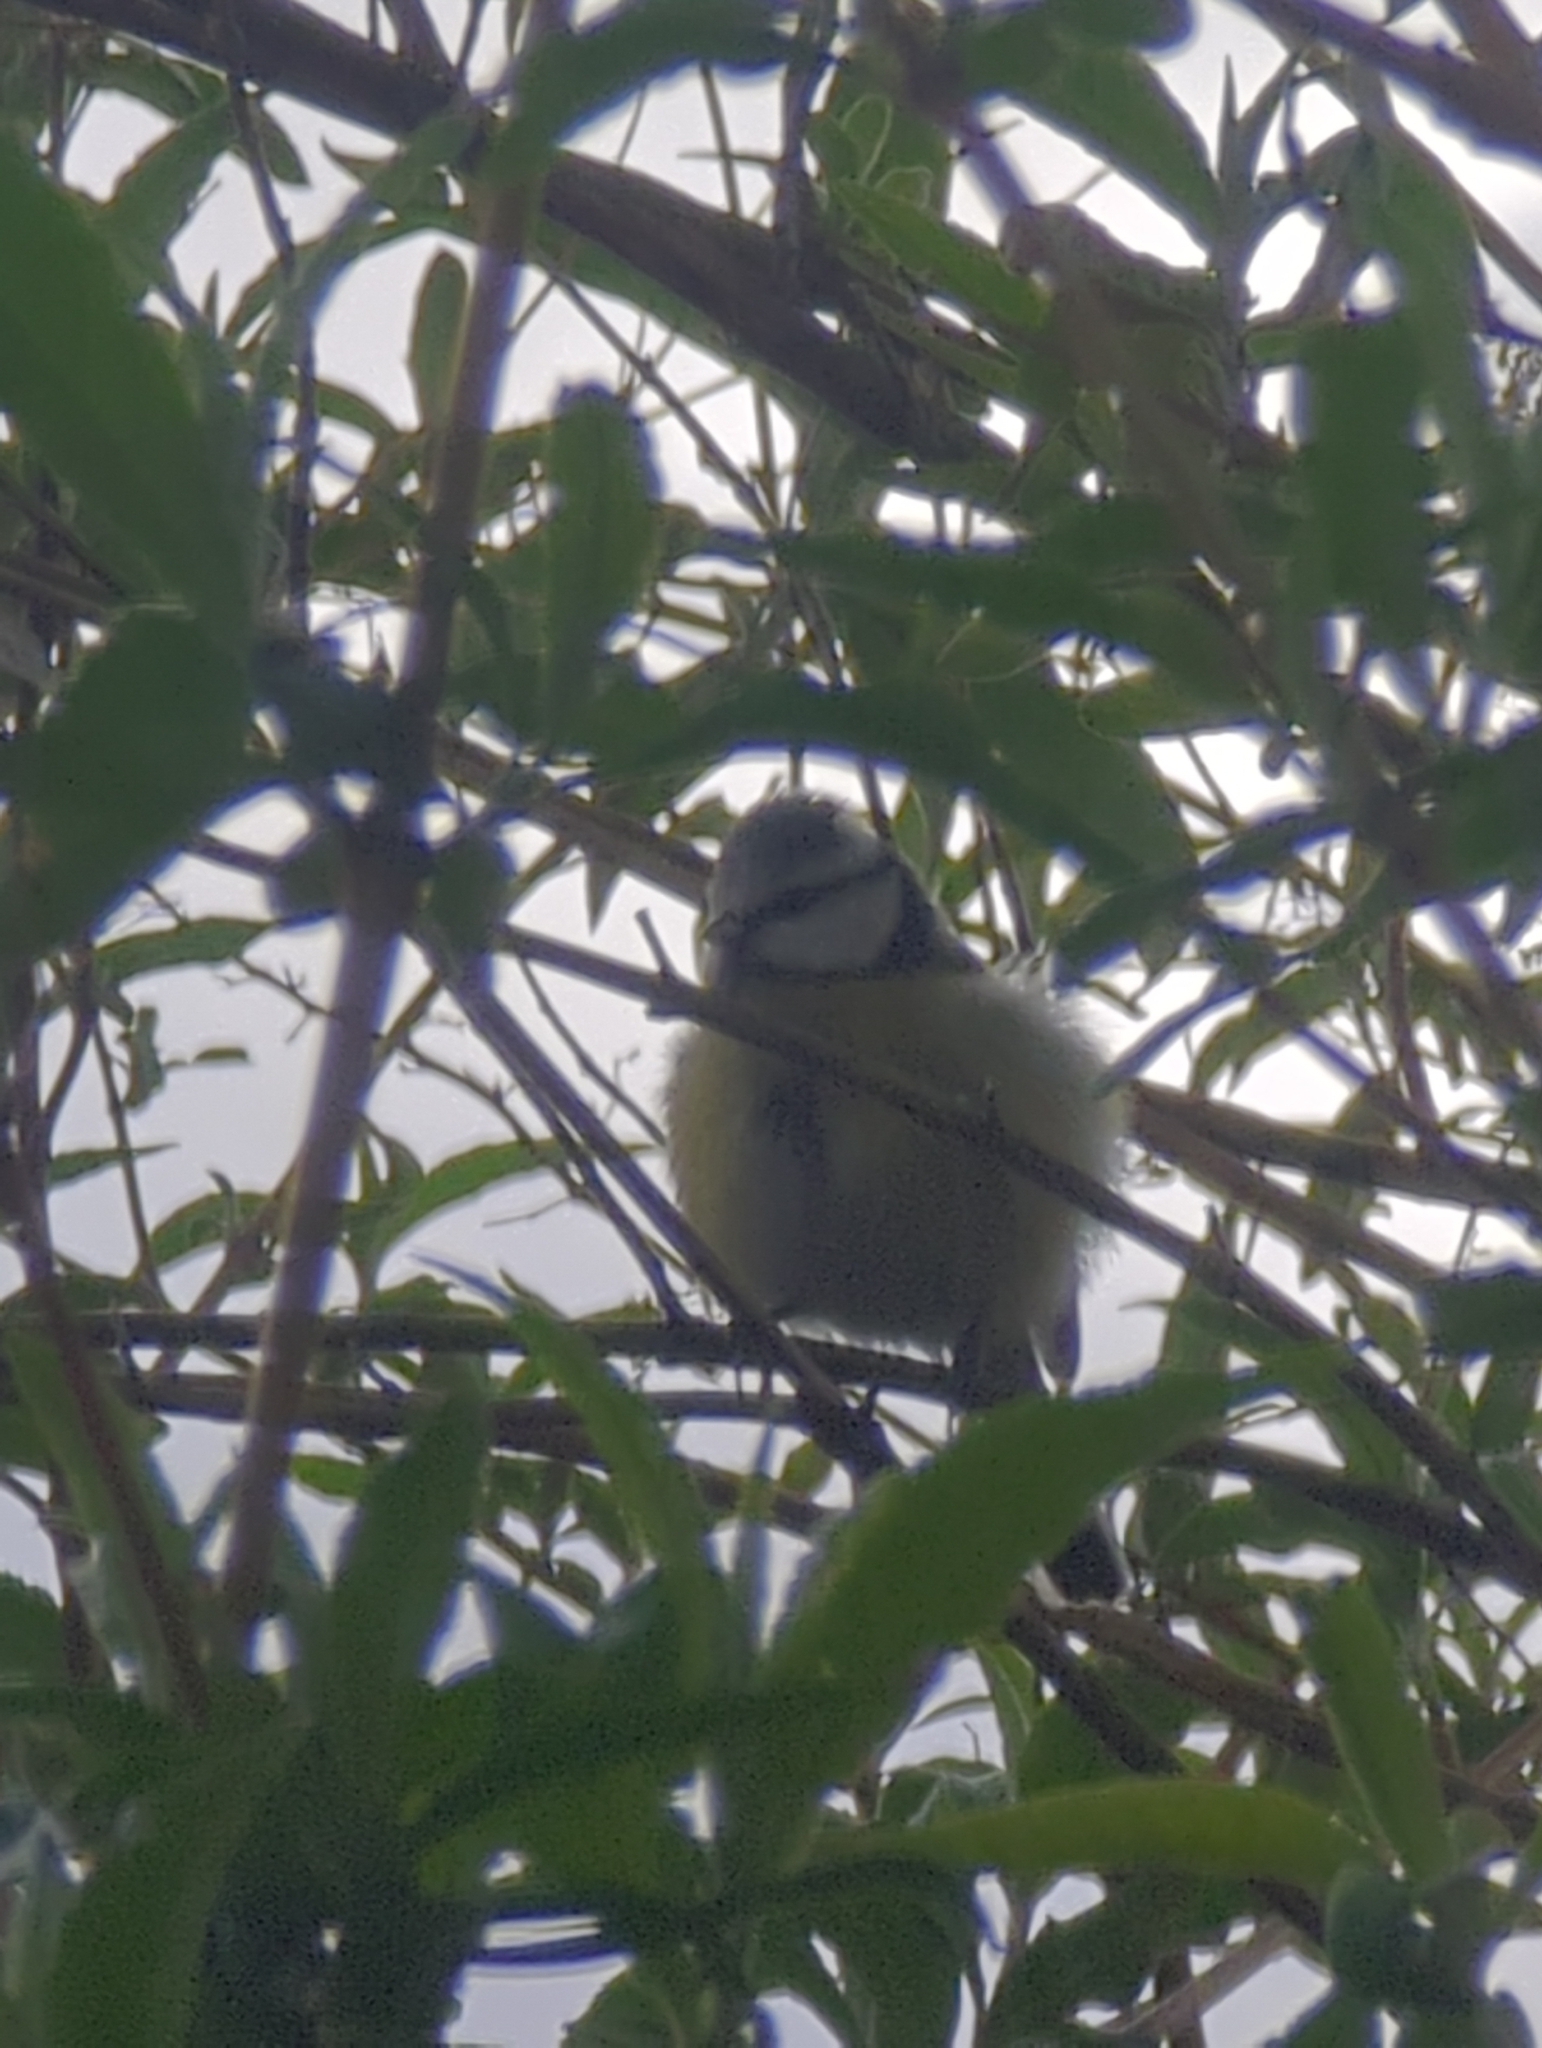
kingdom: Animalia
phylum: Chordata
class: Aves
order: Passeriformes
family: Paridae
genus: Cyanistes
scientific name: Cyanistes caeruleus
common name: Eurasian blue tit
